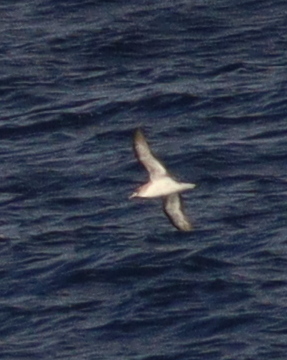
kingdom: Animalia
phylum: Chordata
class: Aves
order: Procellariiformes
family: Procellariidae
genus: Calonectris
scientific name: Calonectris diomedea
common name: Cory's shearwater
